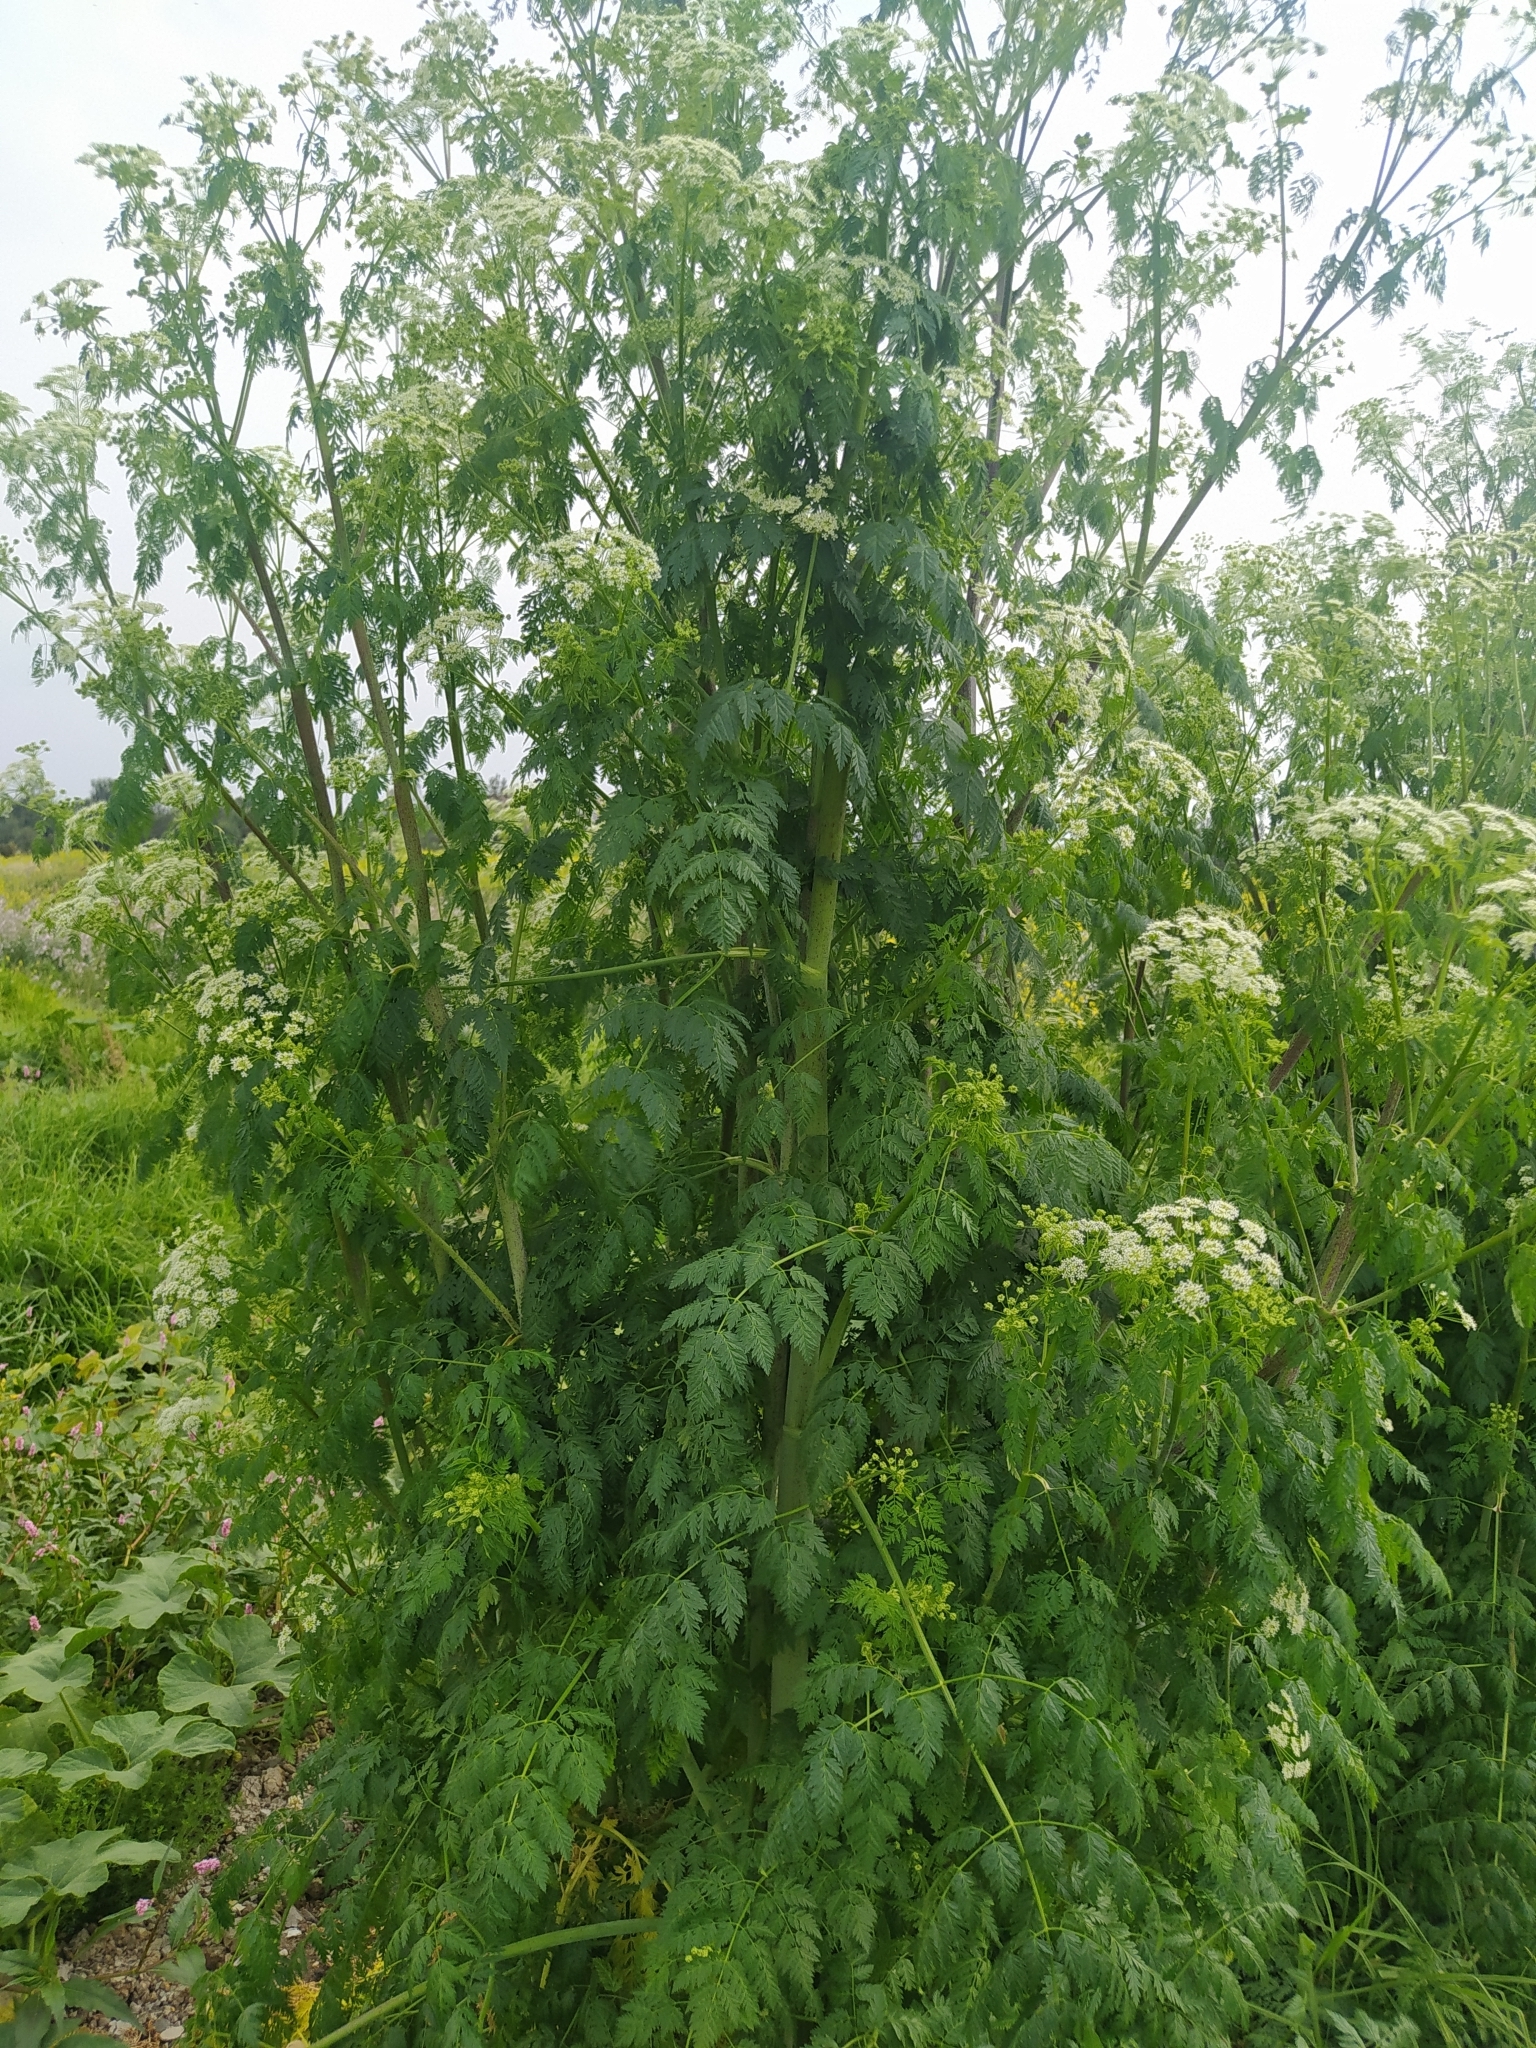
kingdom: Plantae
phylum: Tracheophyta
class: Magnoliopsida
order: Apiales
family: Apiaceae
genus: Conium
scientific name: Conium maculatum
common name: Hemlock
